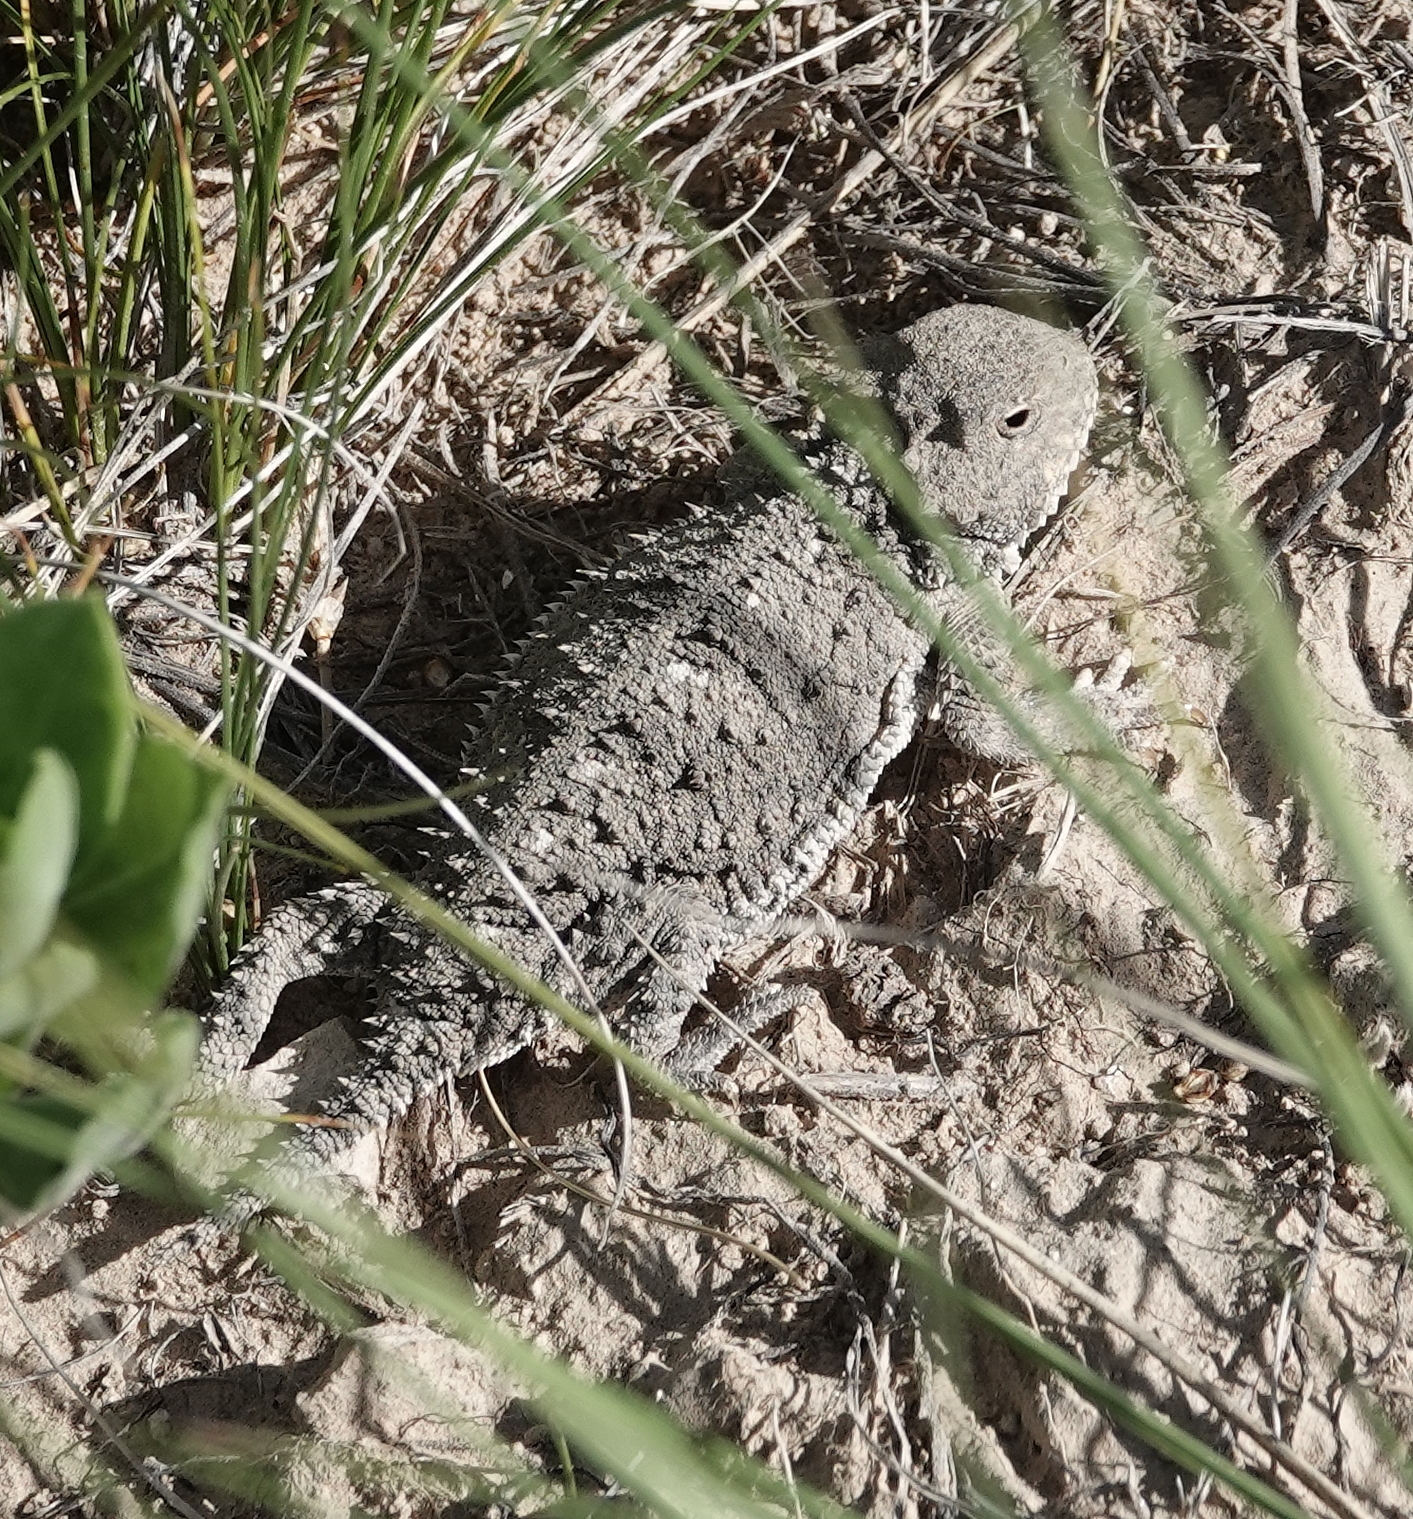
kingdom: Animalia
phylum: Chordata
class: Squamata
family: Phrynosomatidae
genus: Phrynosoma
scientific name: Phrynosoma hernandesi
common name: Greater short-horned lizard
